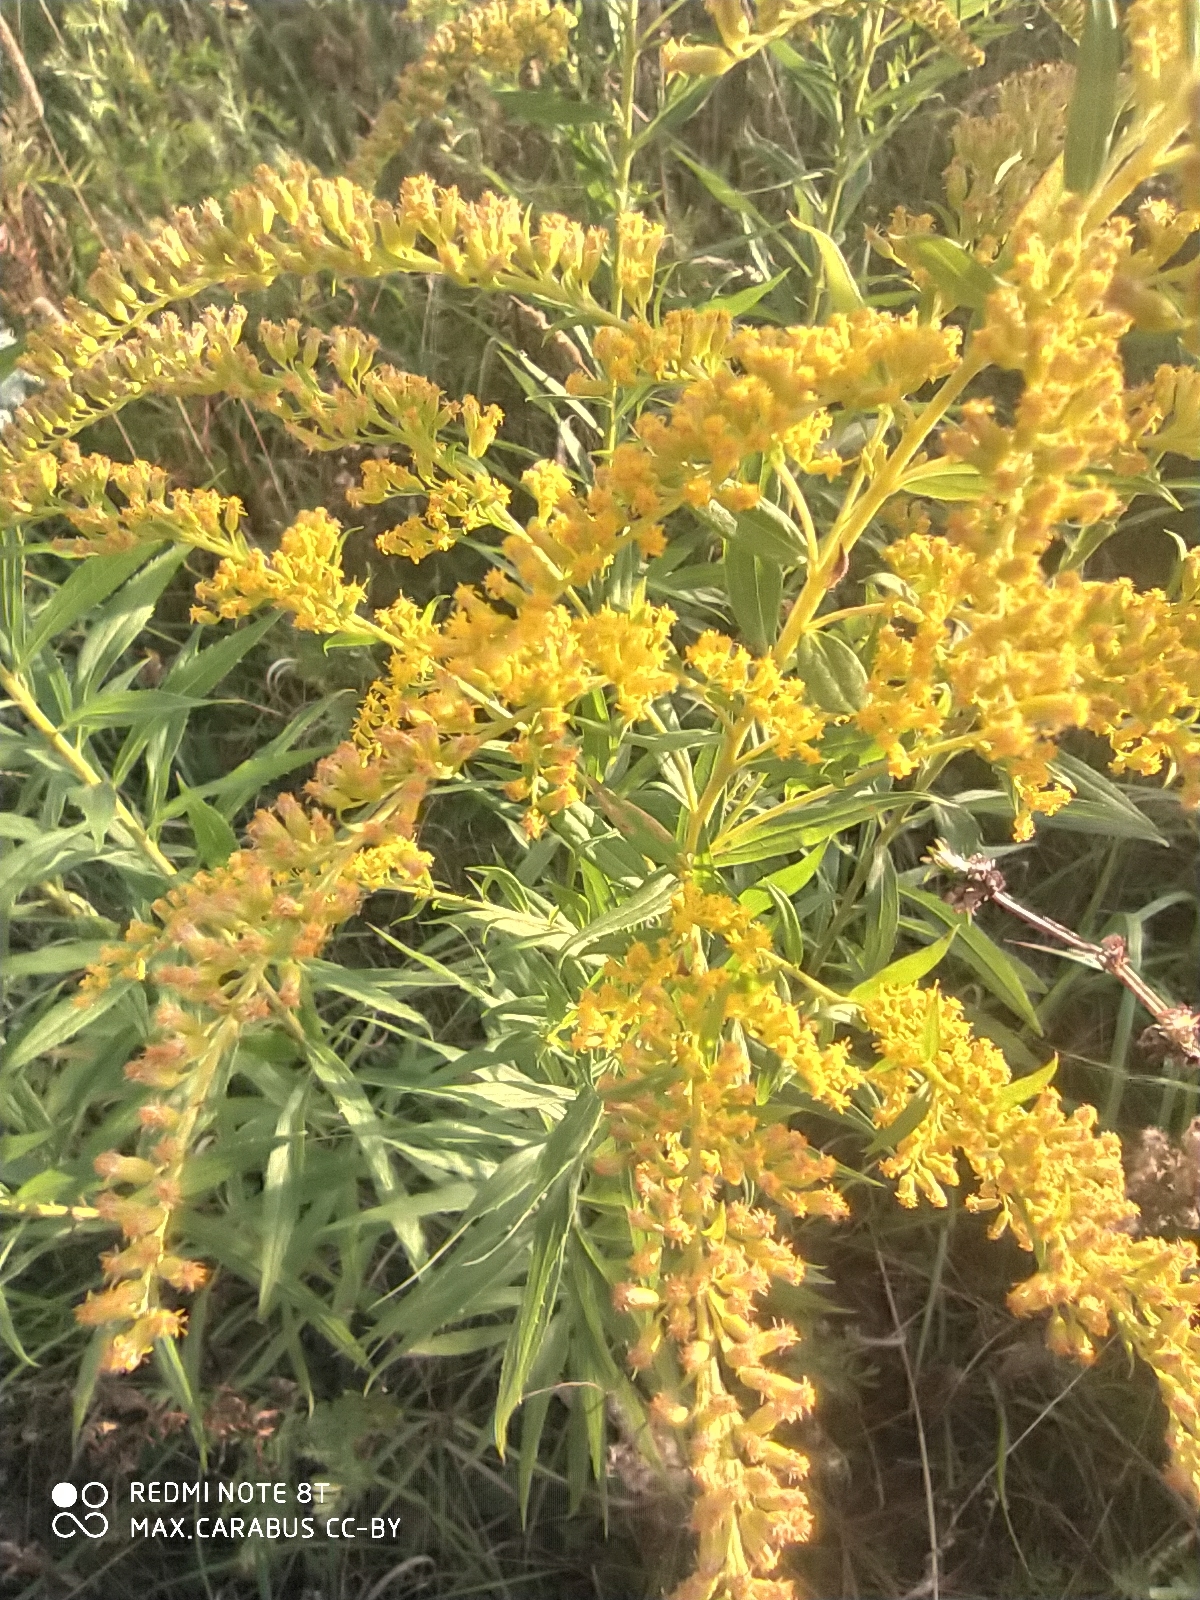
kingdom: Plantae
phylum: Tracheophyta
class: Magnoliopsida
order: Asterales
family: Asteraceae
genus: Solidago
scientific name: Solidago canadensis
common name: Canada goldenrod
